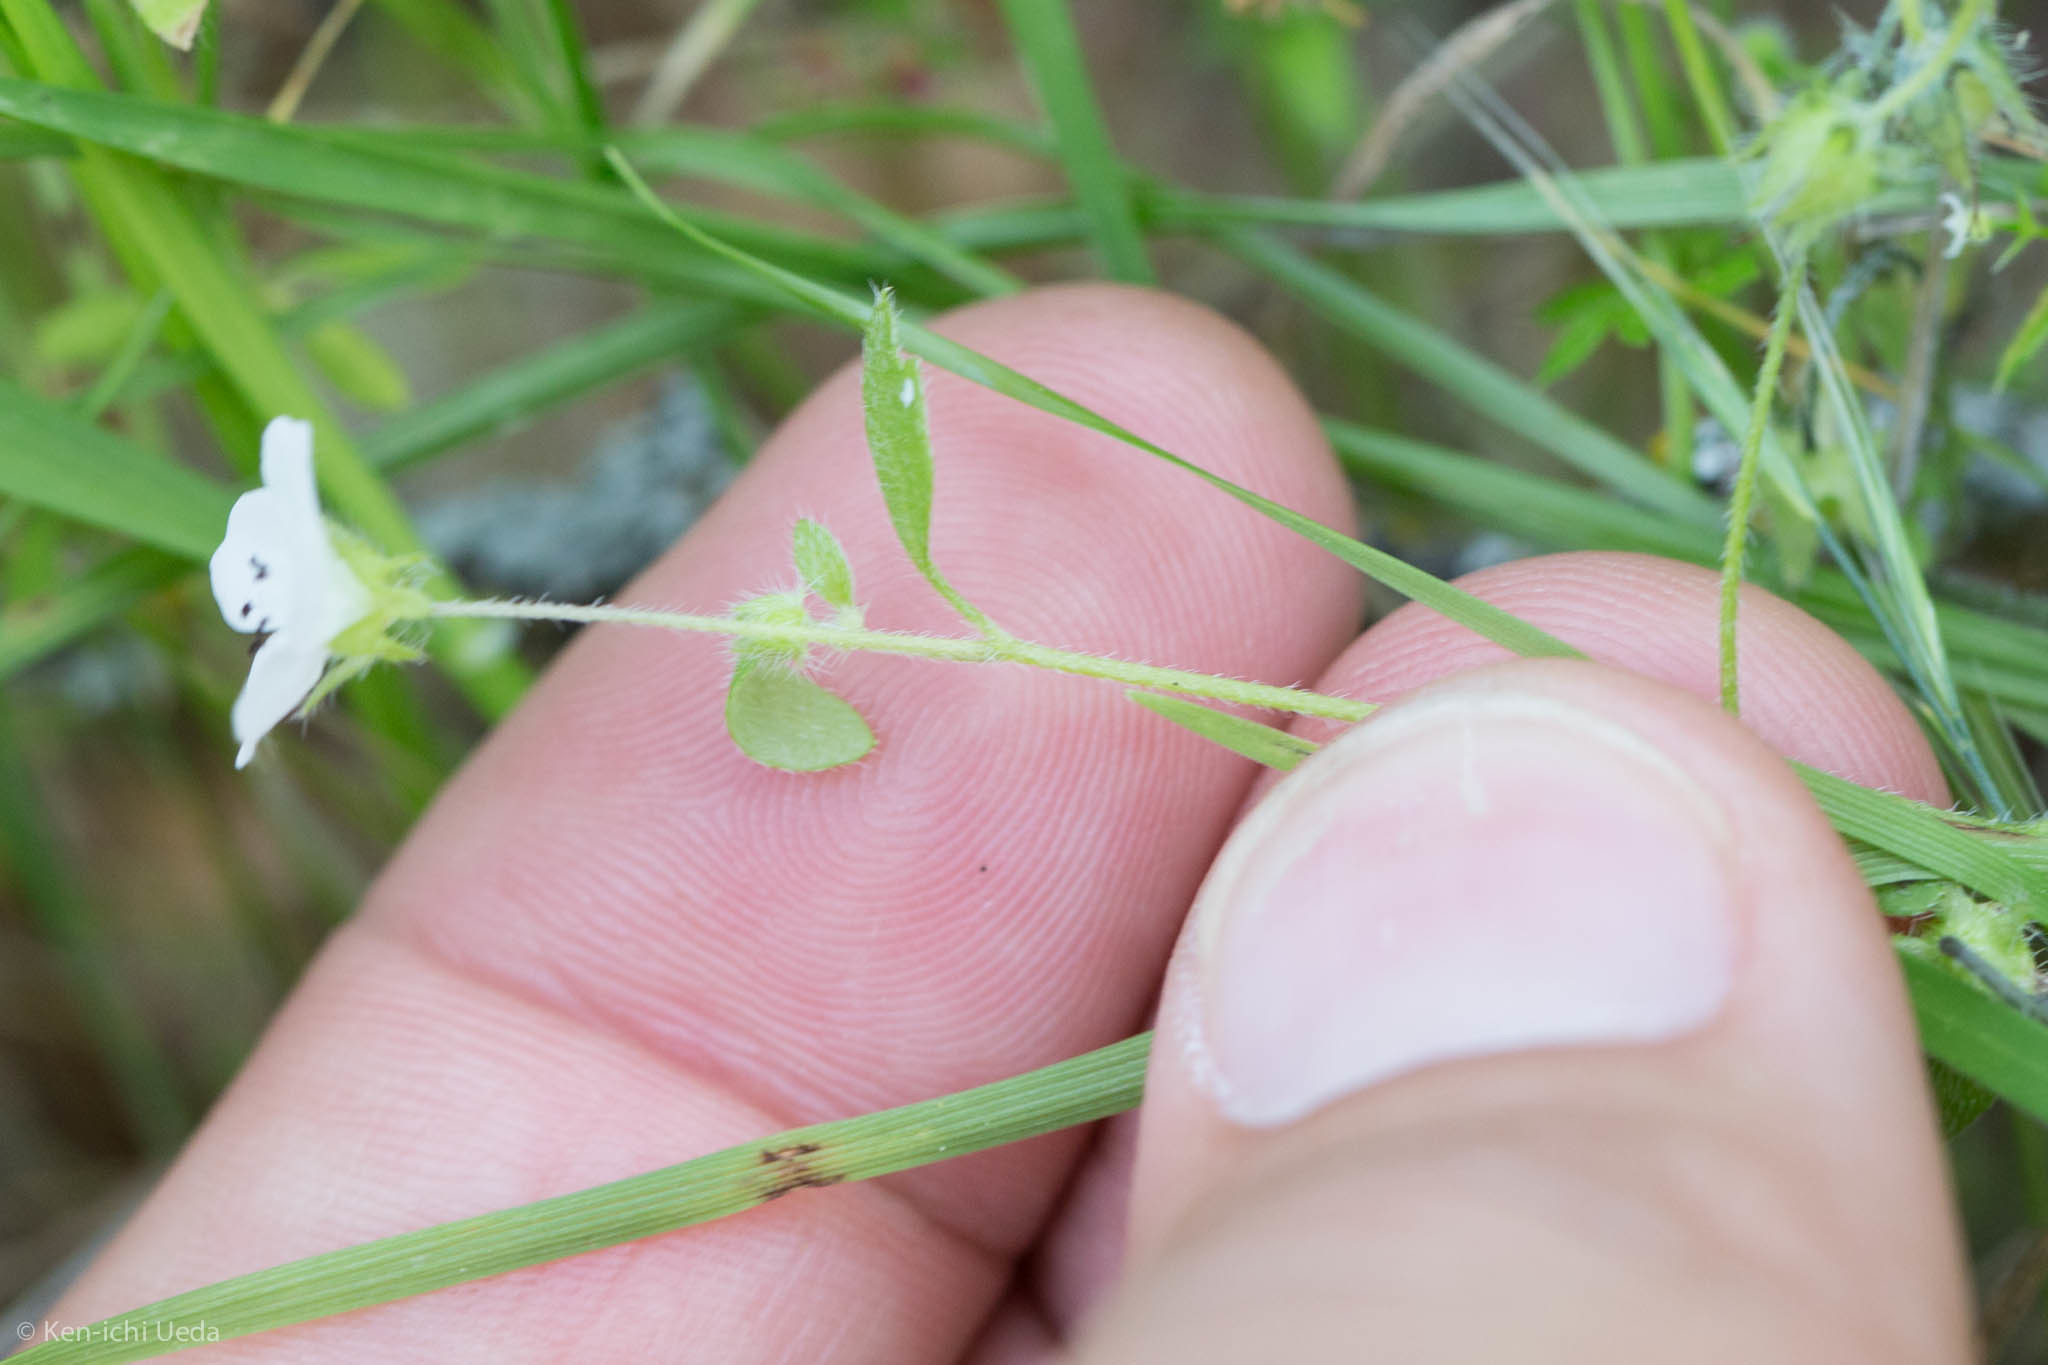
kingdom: Plantae
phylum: Tracheophyta
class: Magnoliopsida
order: Boraginales
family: Hydrophyllaceae
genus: Nemophila
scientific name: Nemophila heterophylla
